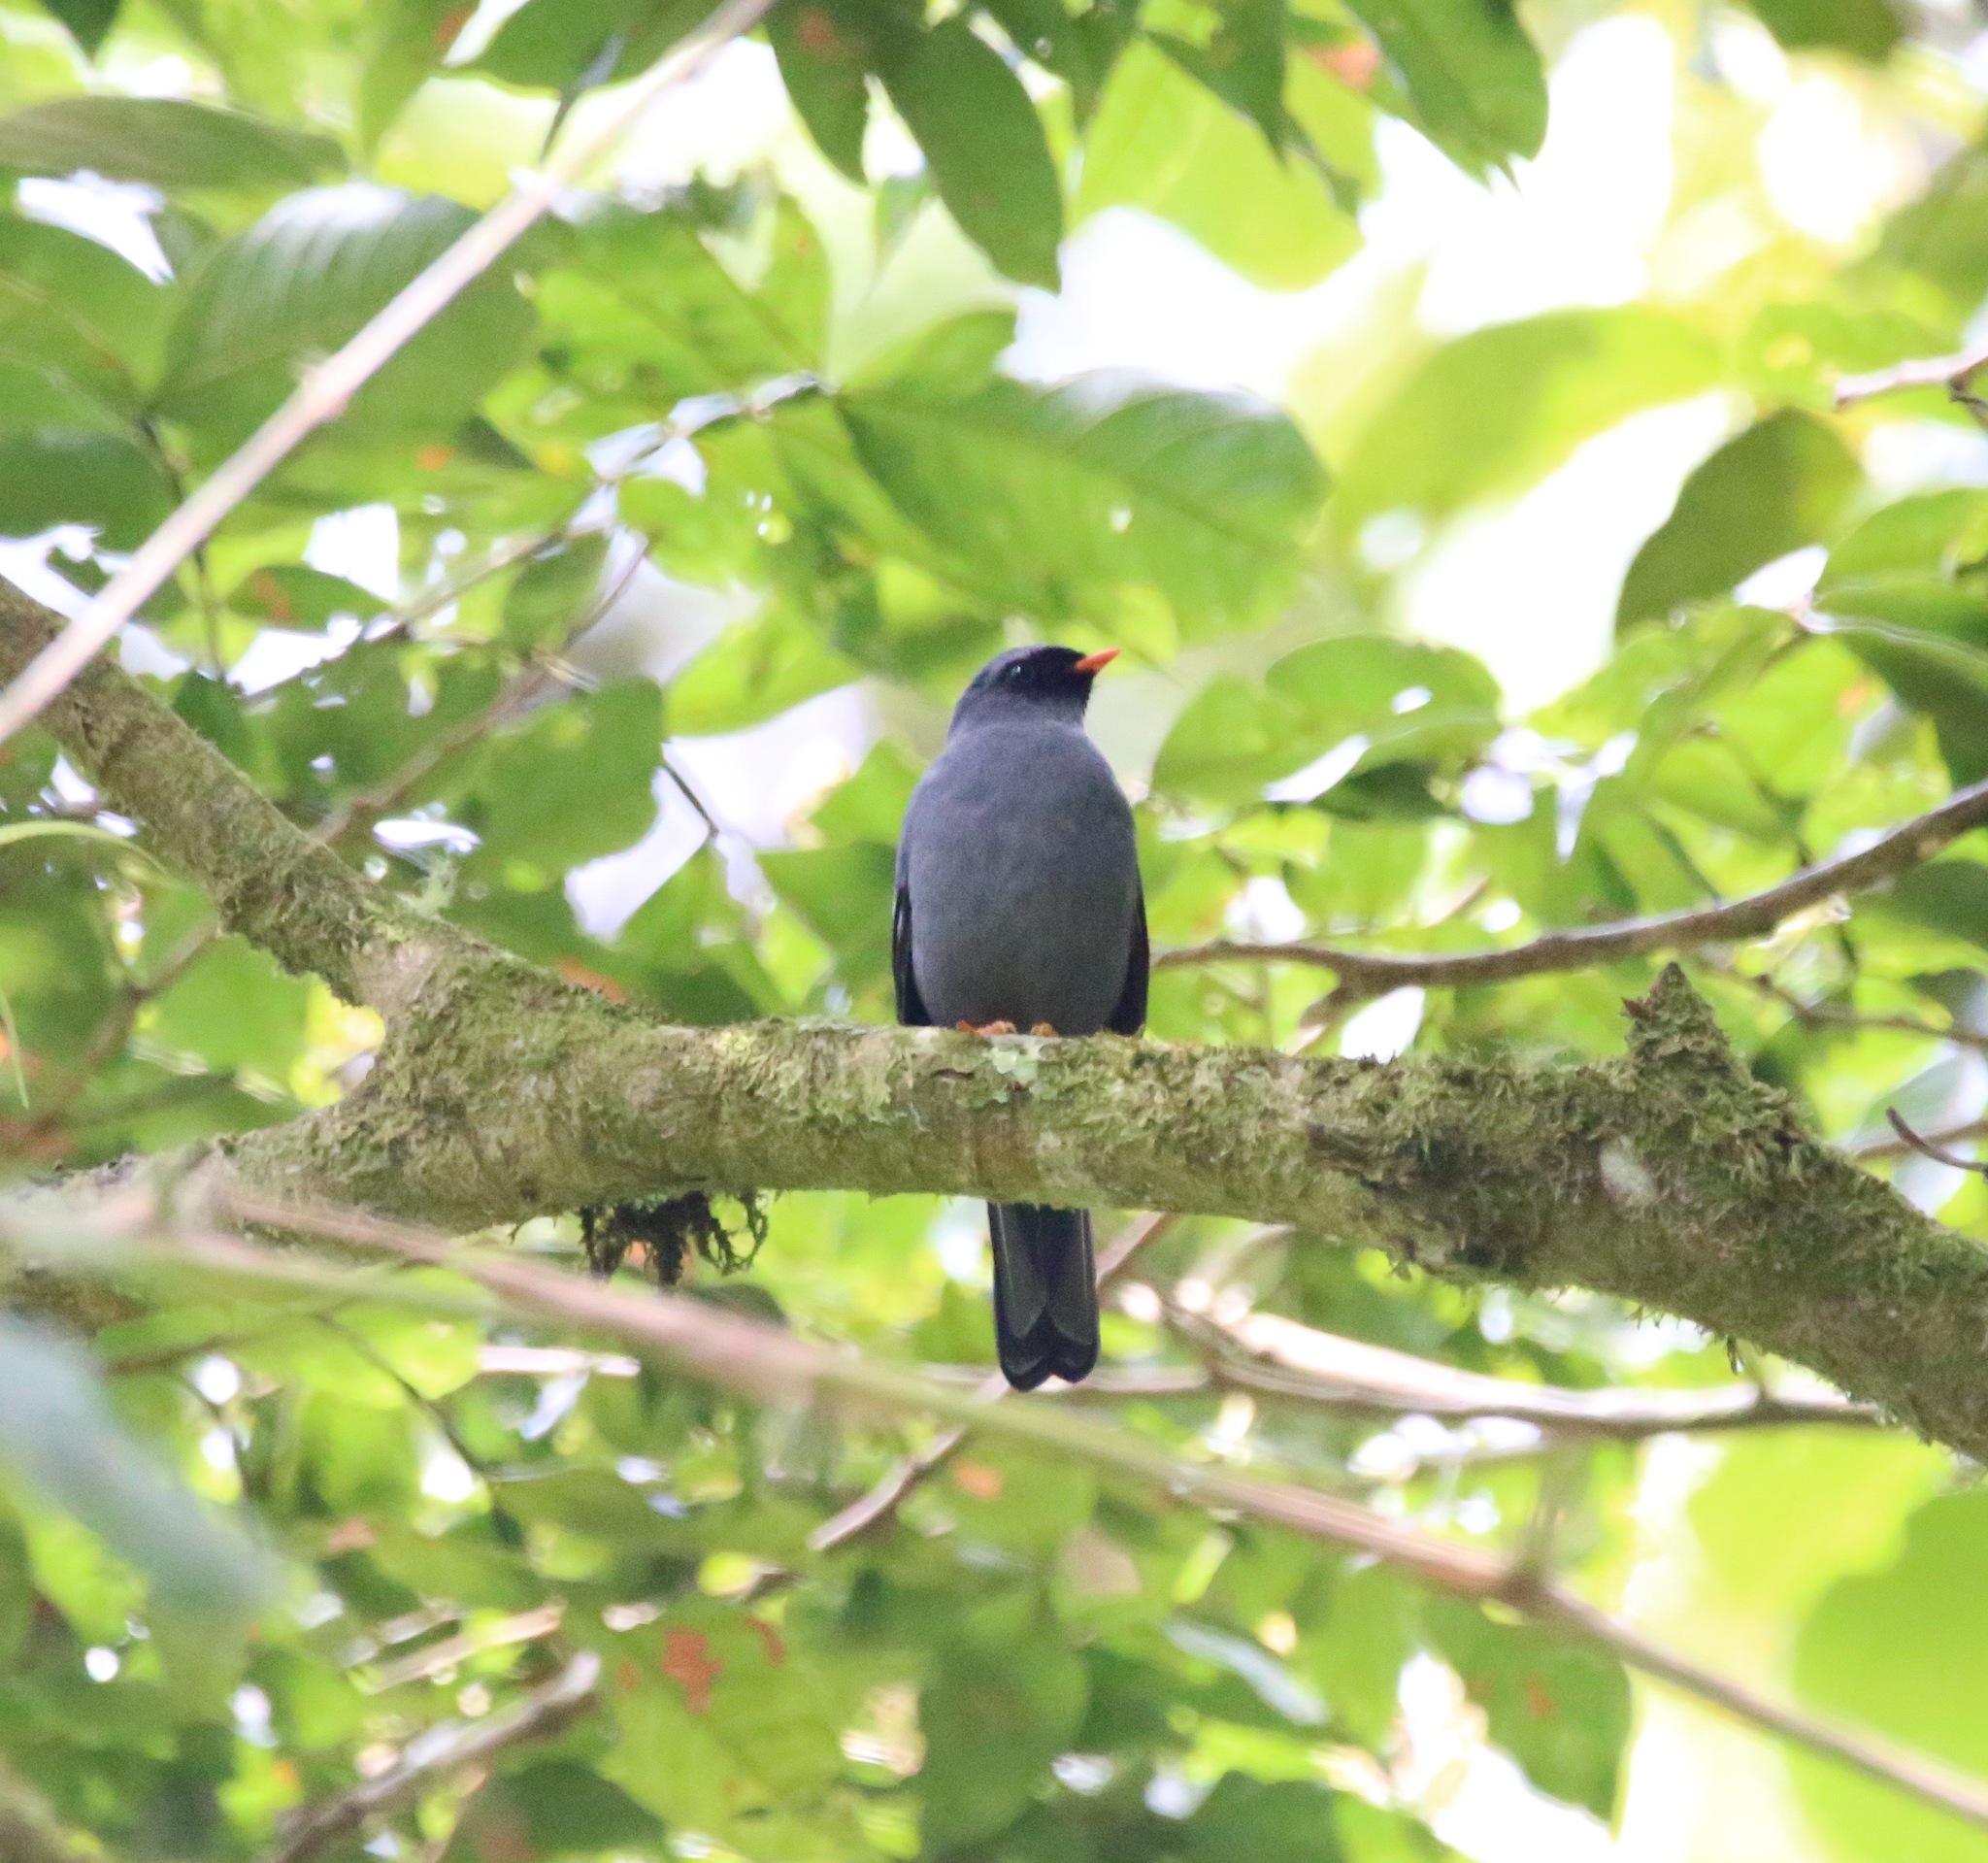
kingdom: Animalia
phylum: Chordata
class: Aves
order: Passeriformes
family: Turdidae
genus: Myadestes
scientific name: Myadestes melanops
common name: Black-faced solitaire
